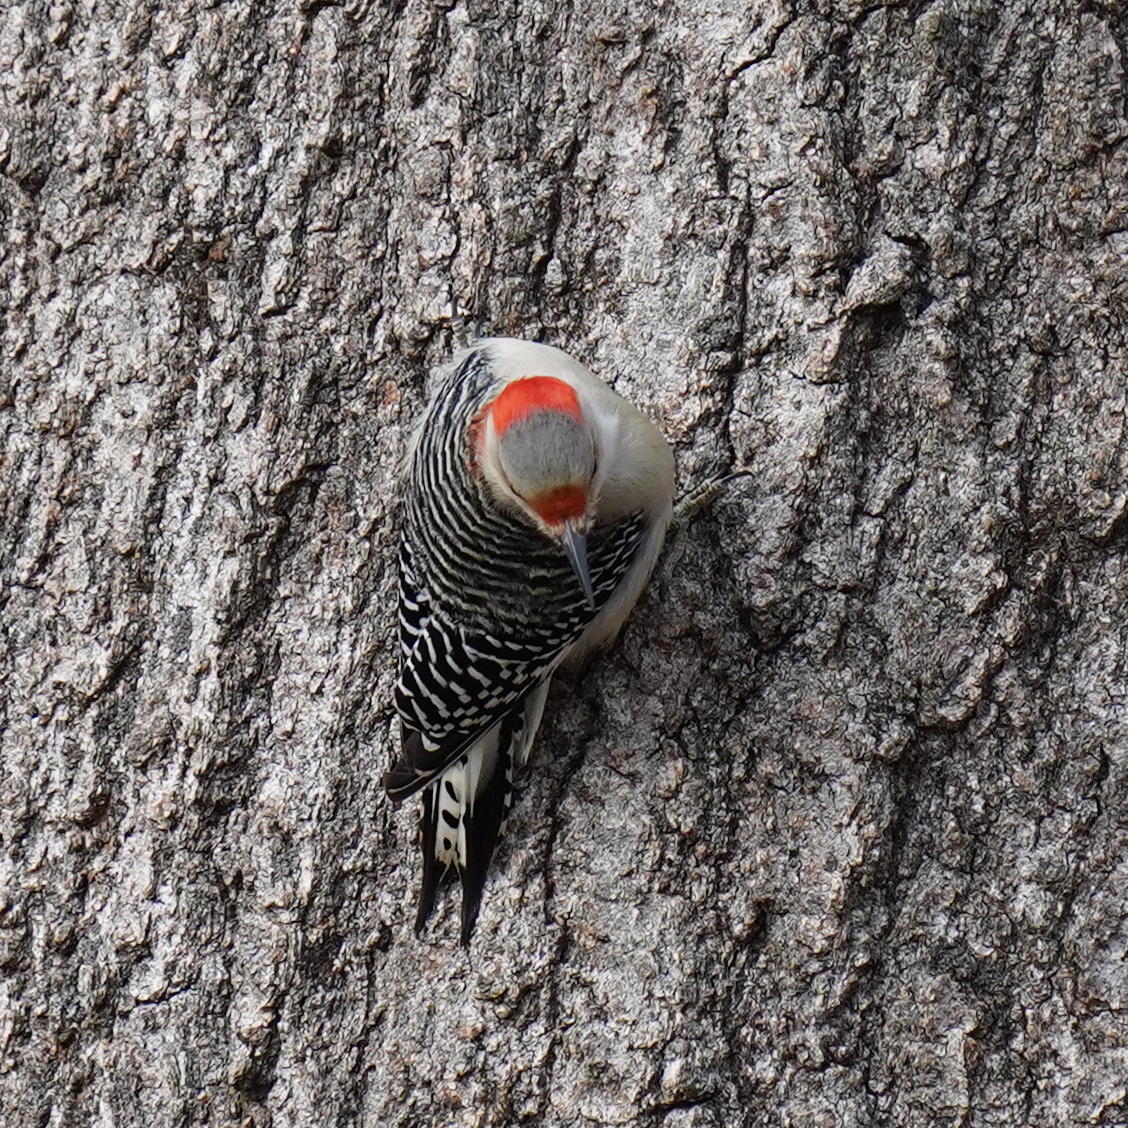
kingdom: Animalia
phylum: Chordata
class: Aves
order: Piciformes
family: Picidae
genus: Melanerpes
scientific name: Melanerpes carolinus
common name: Red-bellied woodpecker
